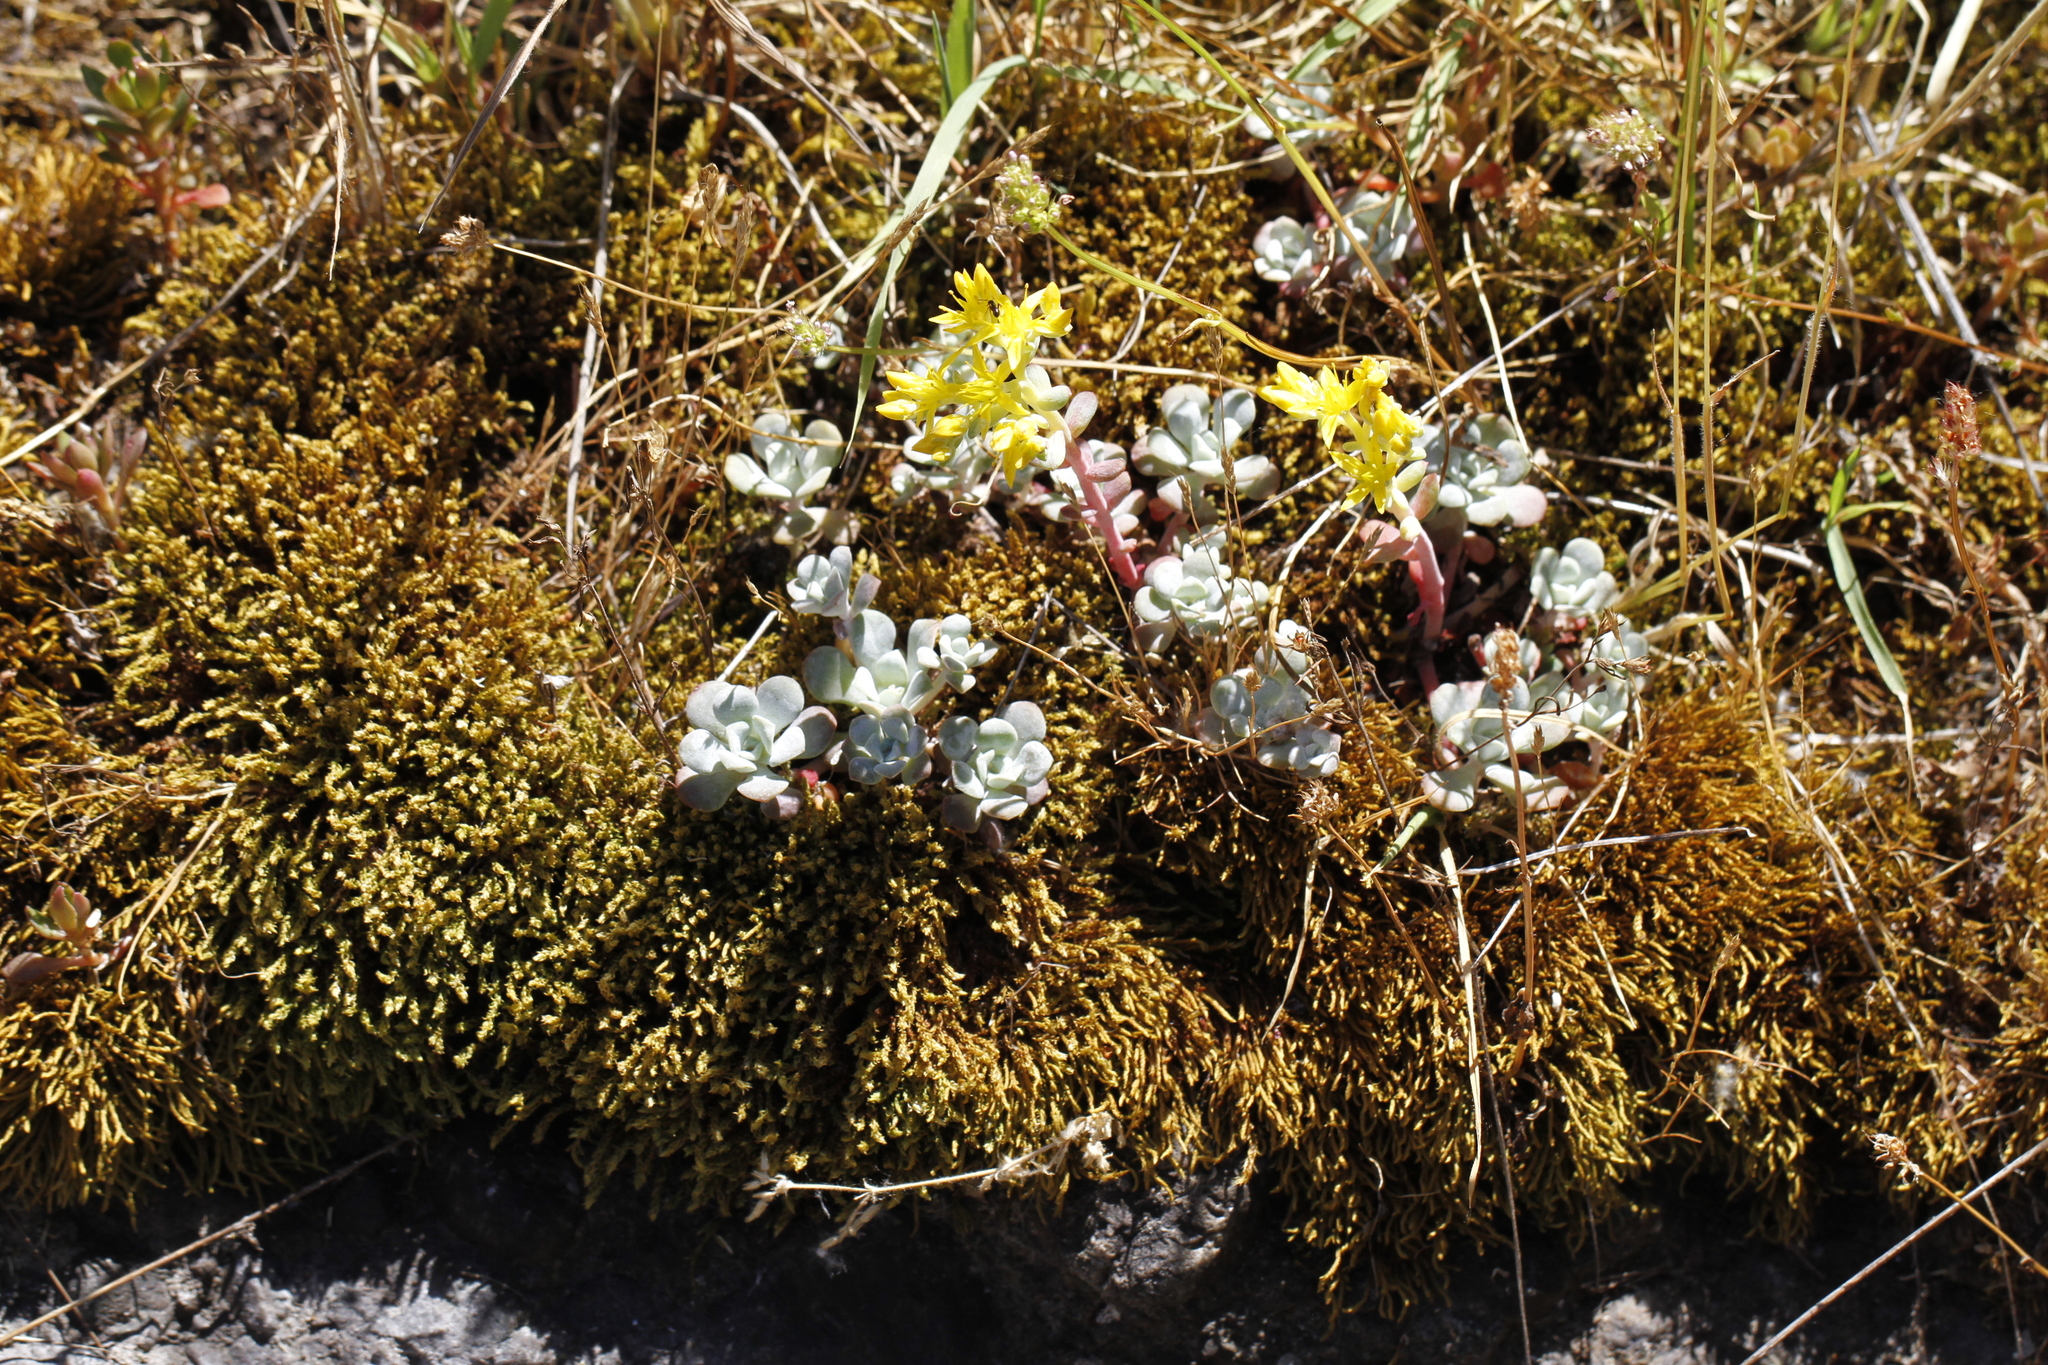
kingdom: Plantae
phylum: Tracheophyta
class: Magnoliopsida
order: Saxifragales
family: Crassulaceae
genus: Sedum
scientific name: Sedum spathulifolium
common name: Colorado stonecrop
